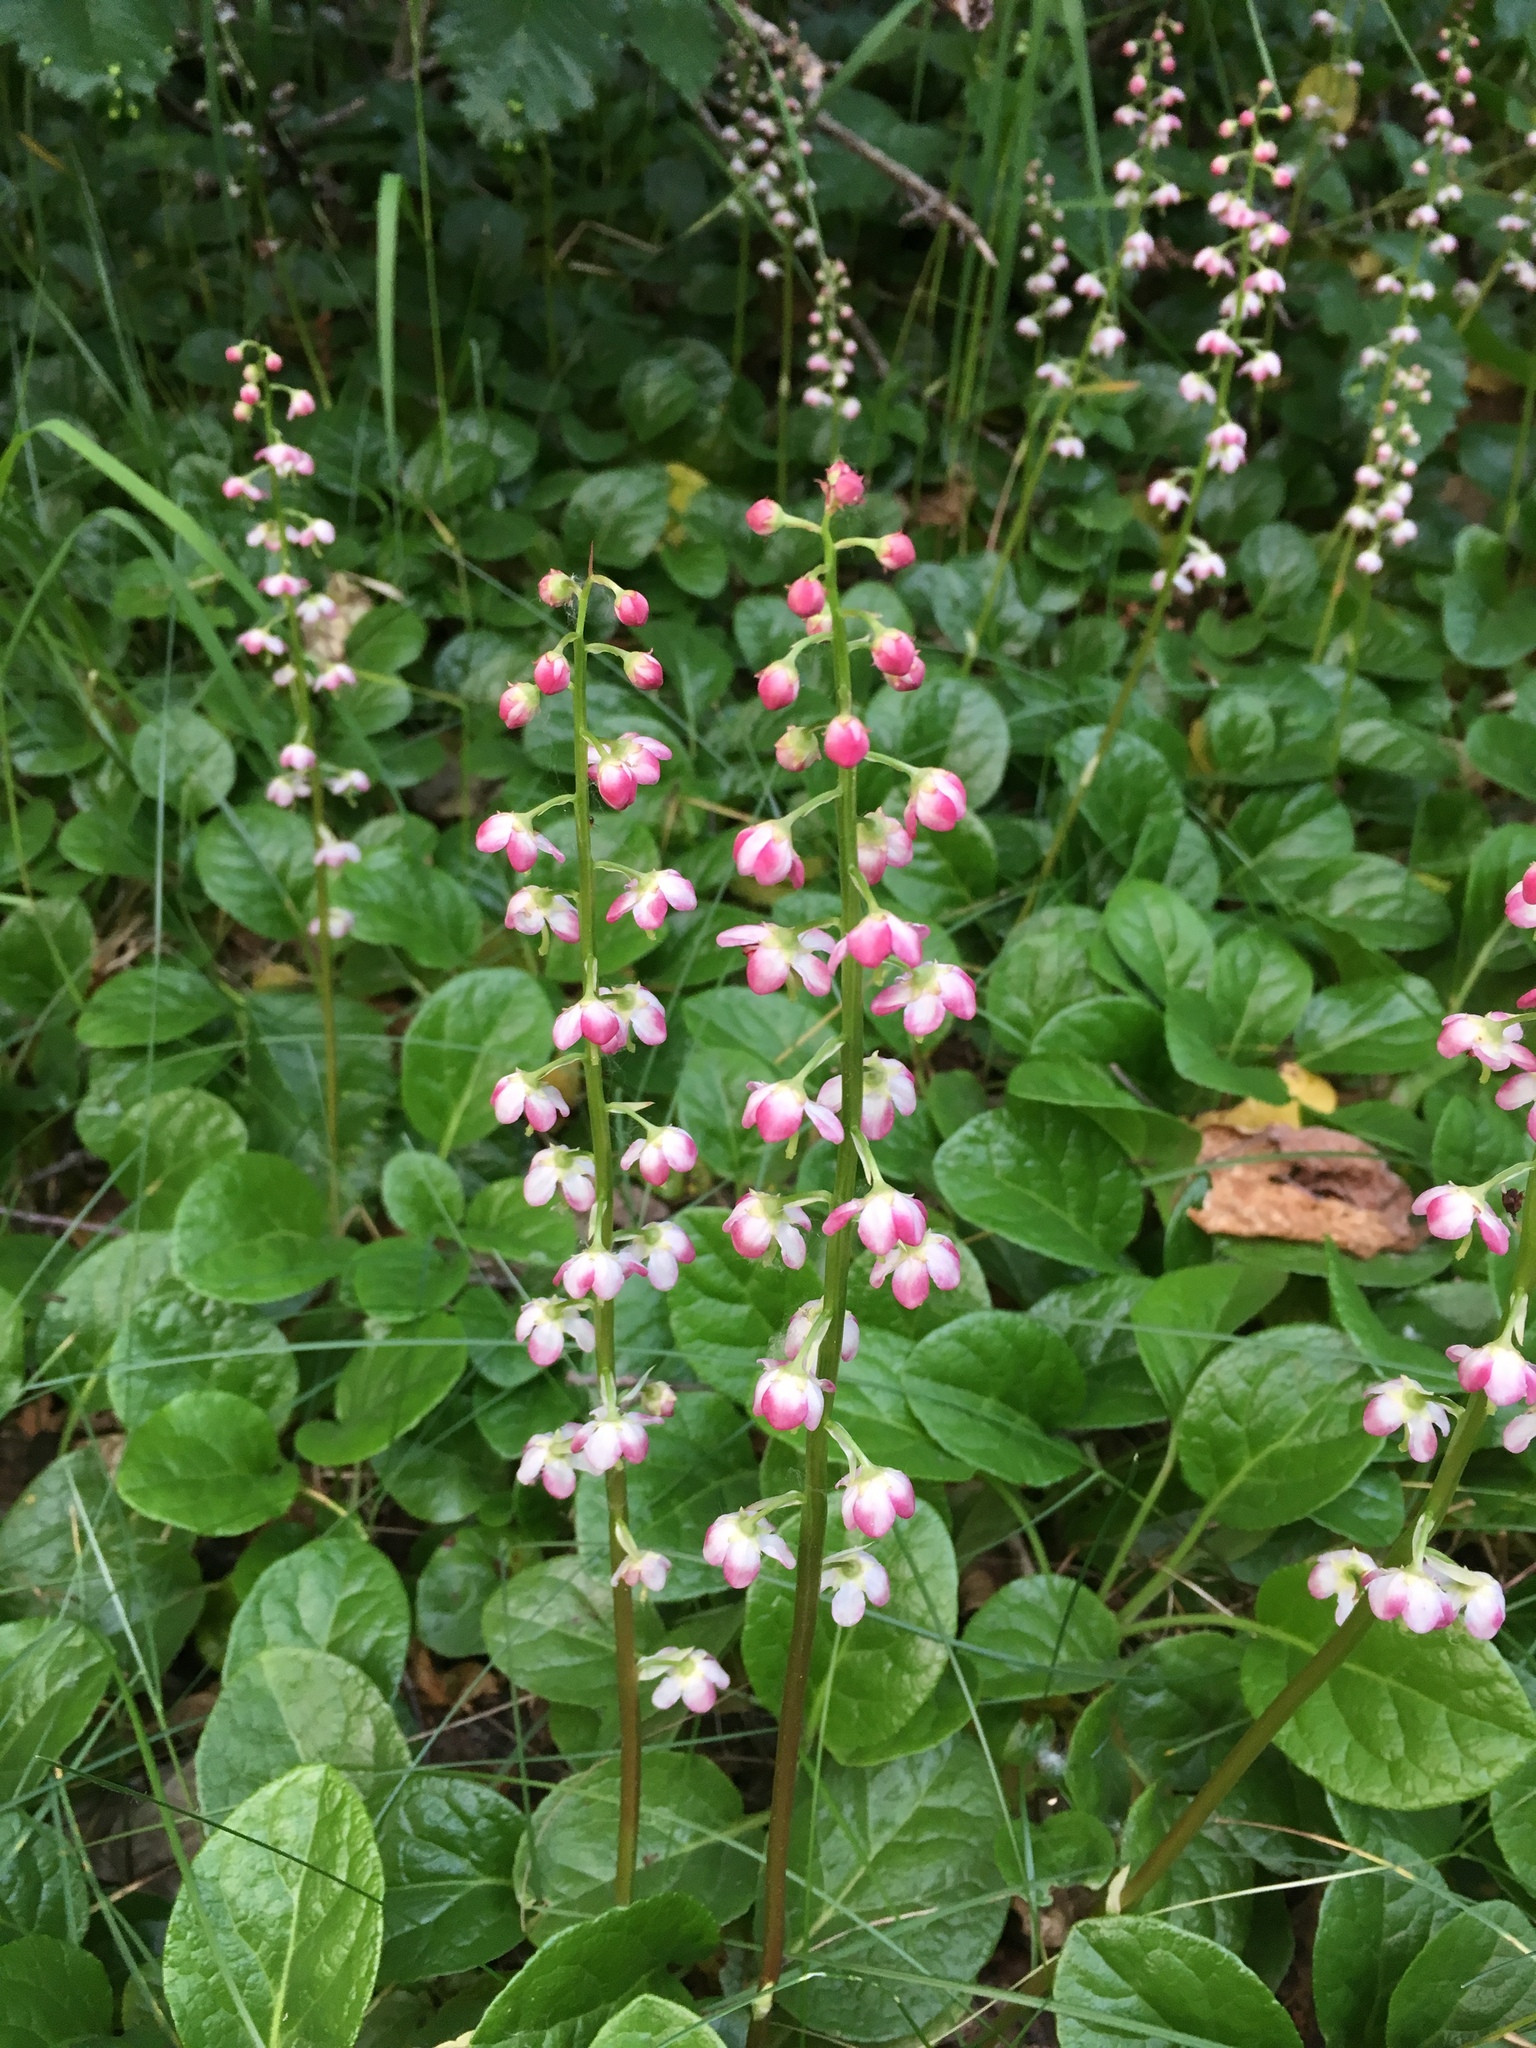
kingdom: Plantae
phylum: Tracheophyta
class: Magnoliopsida
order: Ericales
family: Ericaceae
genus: Pyrola
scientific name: Pyrola asarifolia
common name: Bog wintergreen
